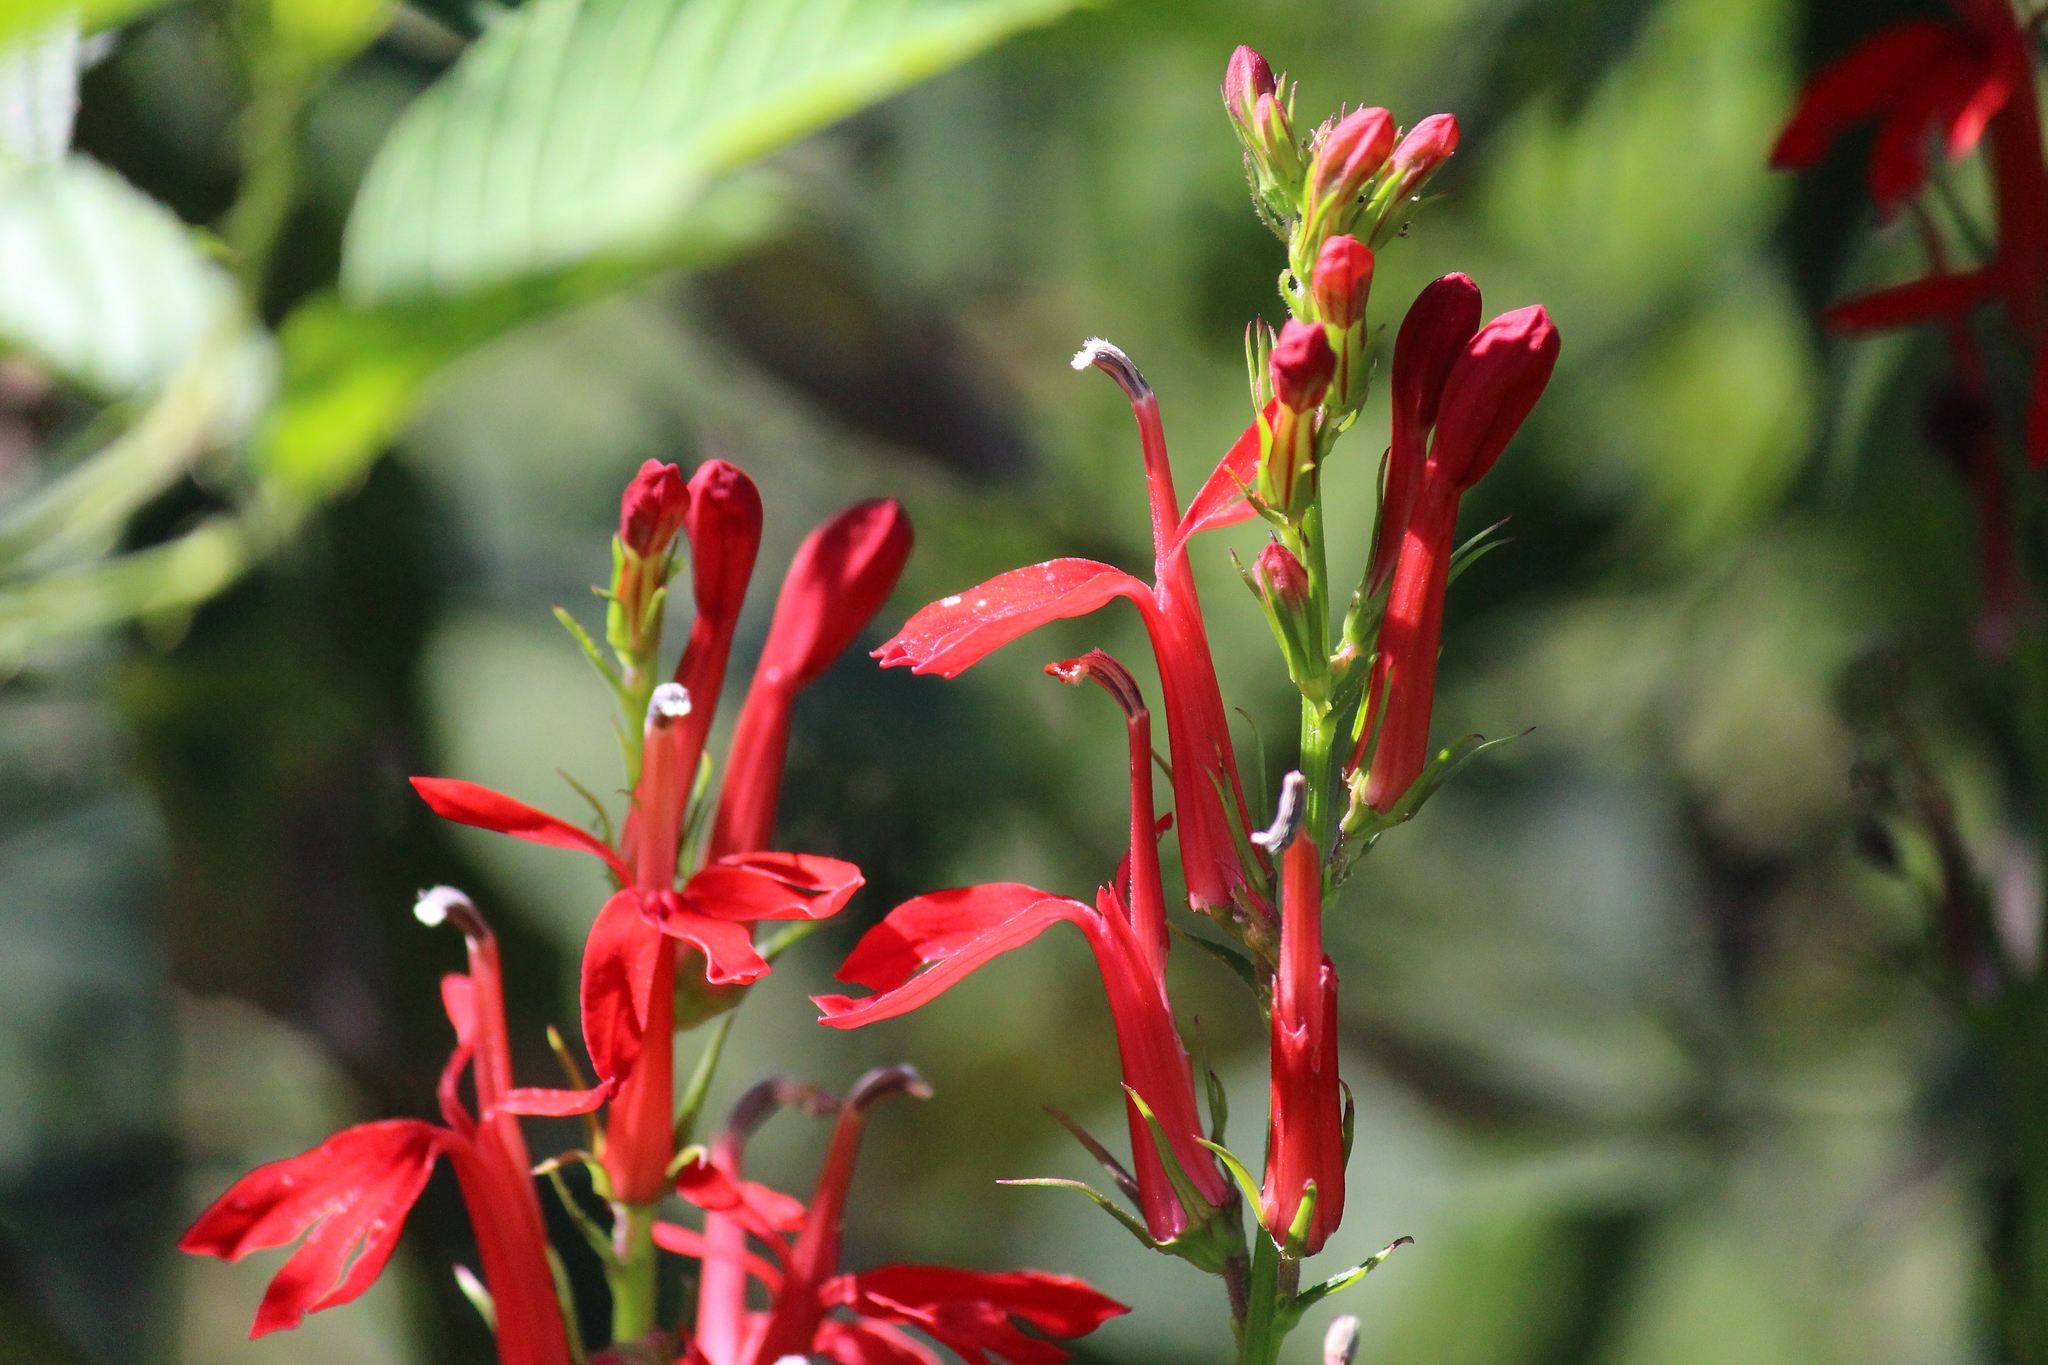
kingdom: Plantae
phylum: Tracheophyta
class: Magnoliopsida
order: Asterales
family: Campanulaceae
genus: Lobelia
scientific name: Lobelia cardinalis
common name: Cardinal flower
